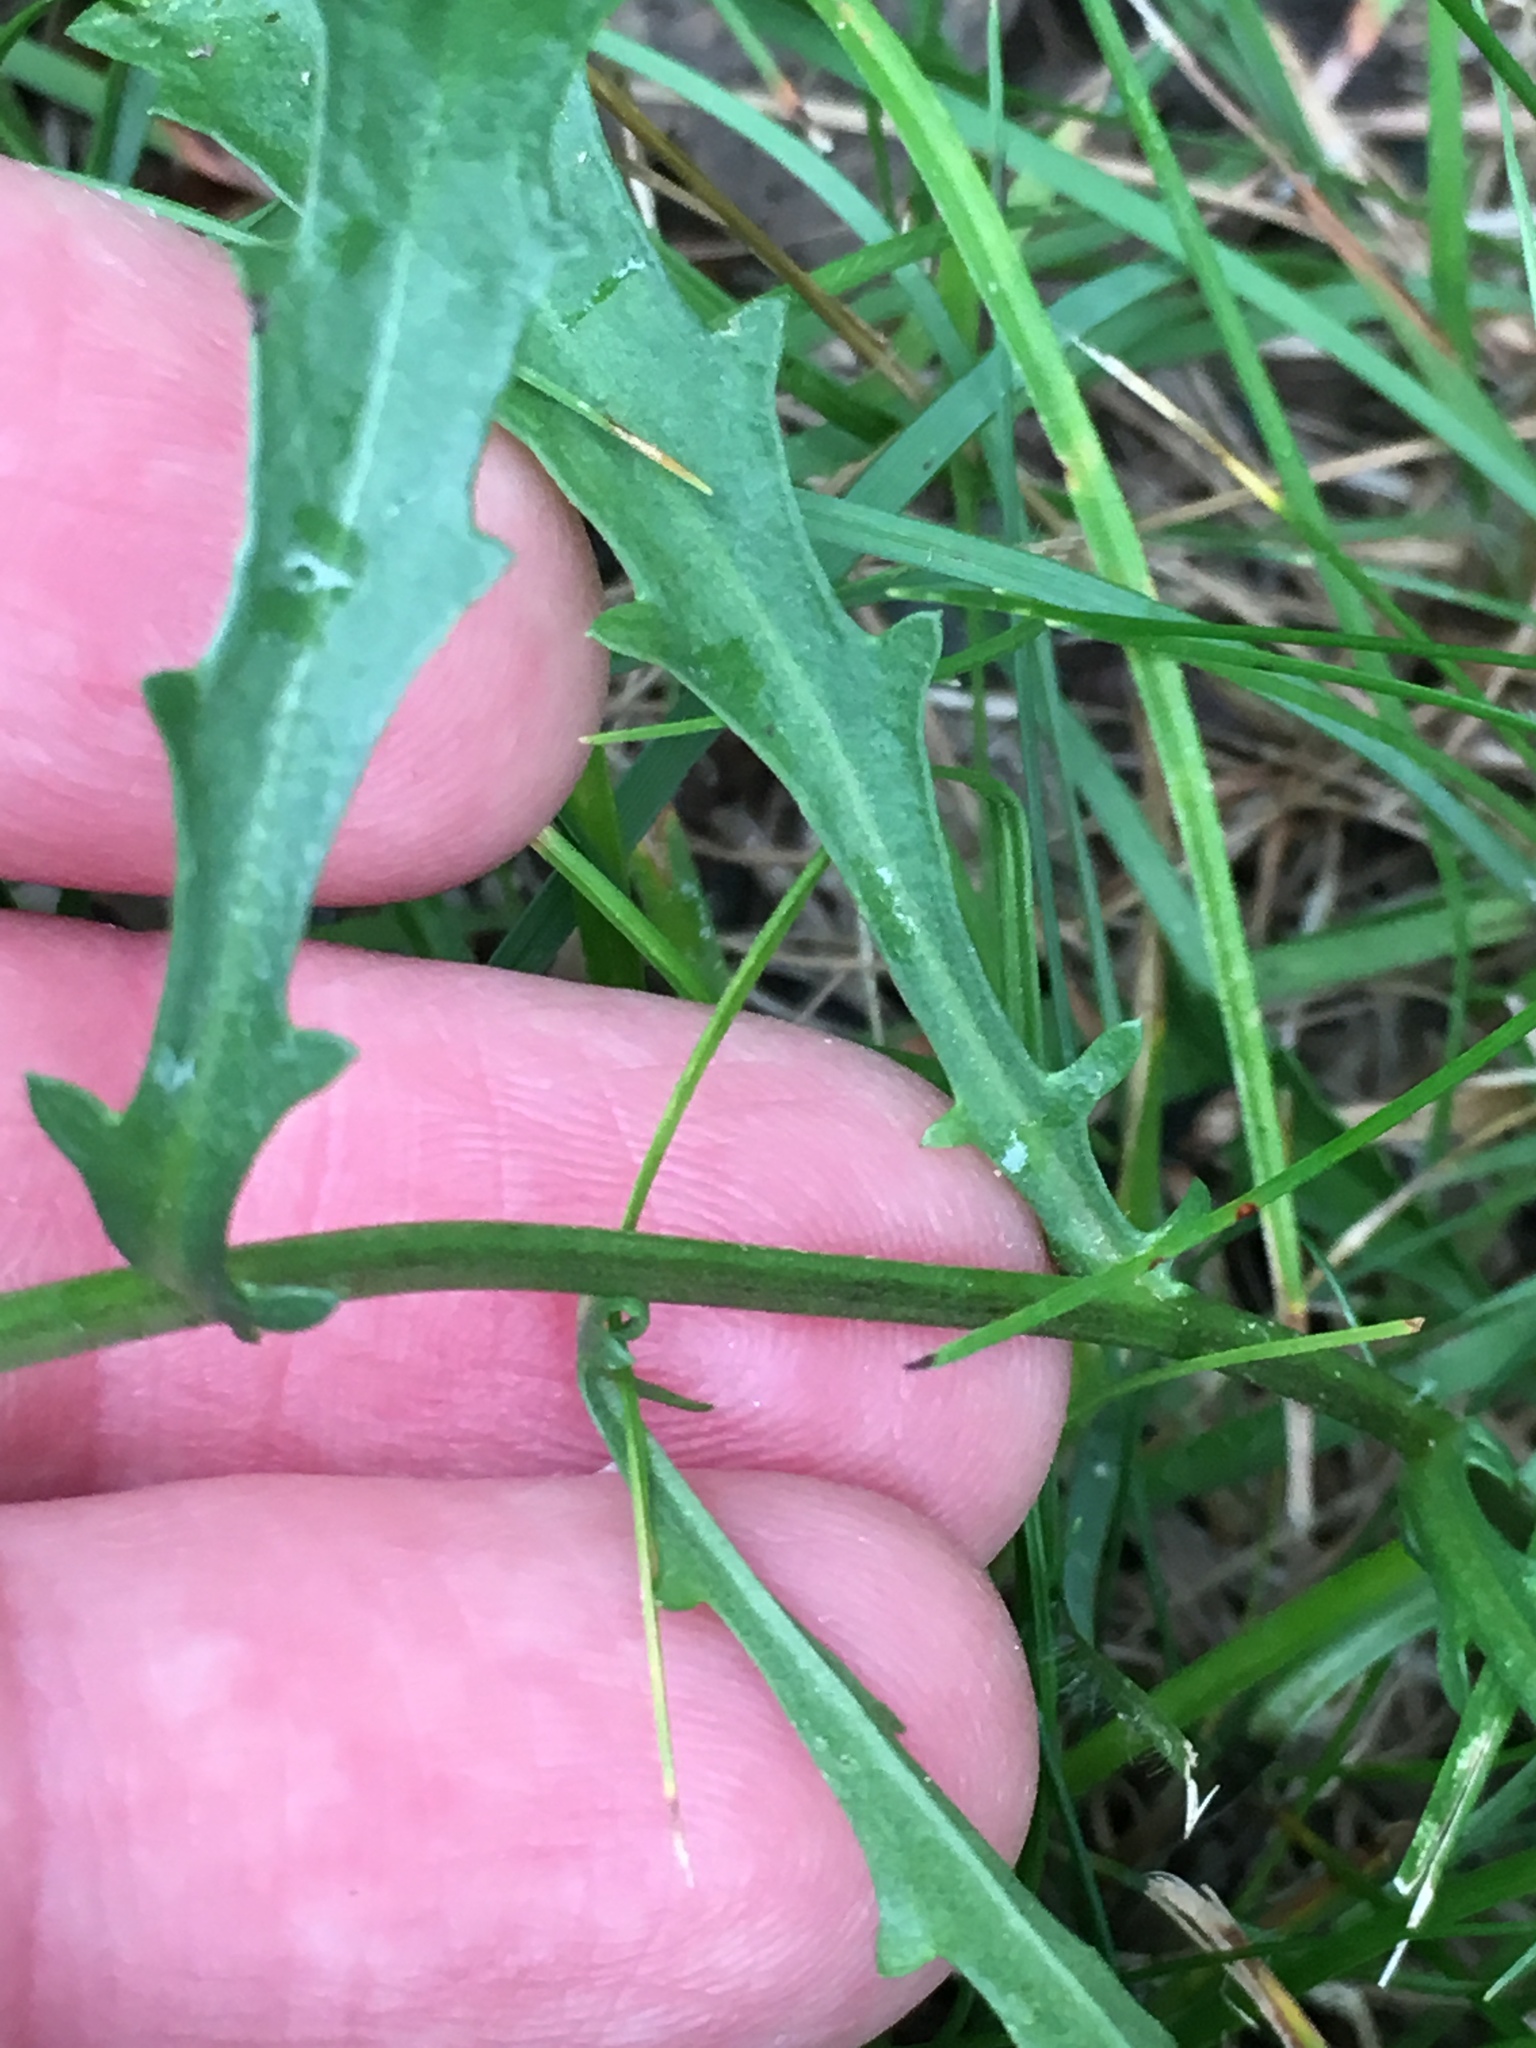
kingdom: Plantae
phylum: Tracheophyta
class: Magnoliopsida
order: Asterales
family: Asteraceae
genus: Leucanthemum
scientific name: Leucanthemum vulgare
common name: Oxeye daisy
